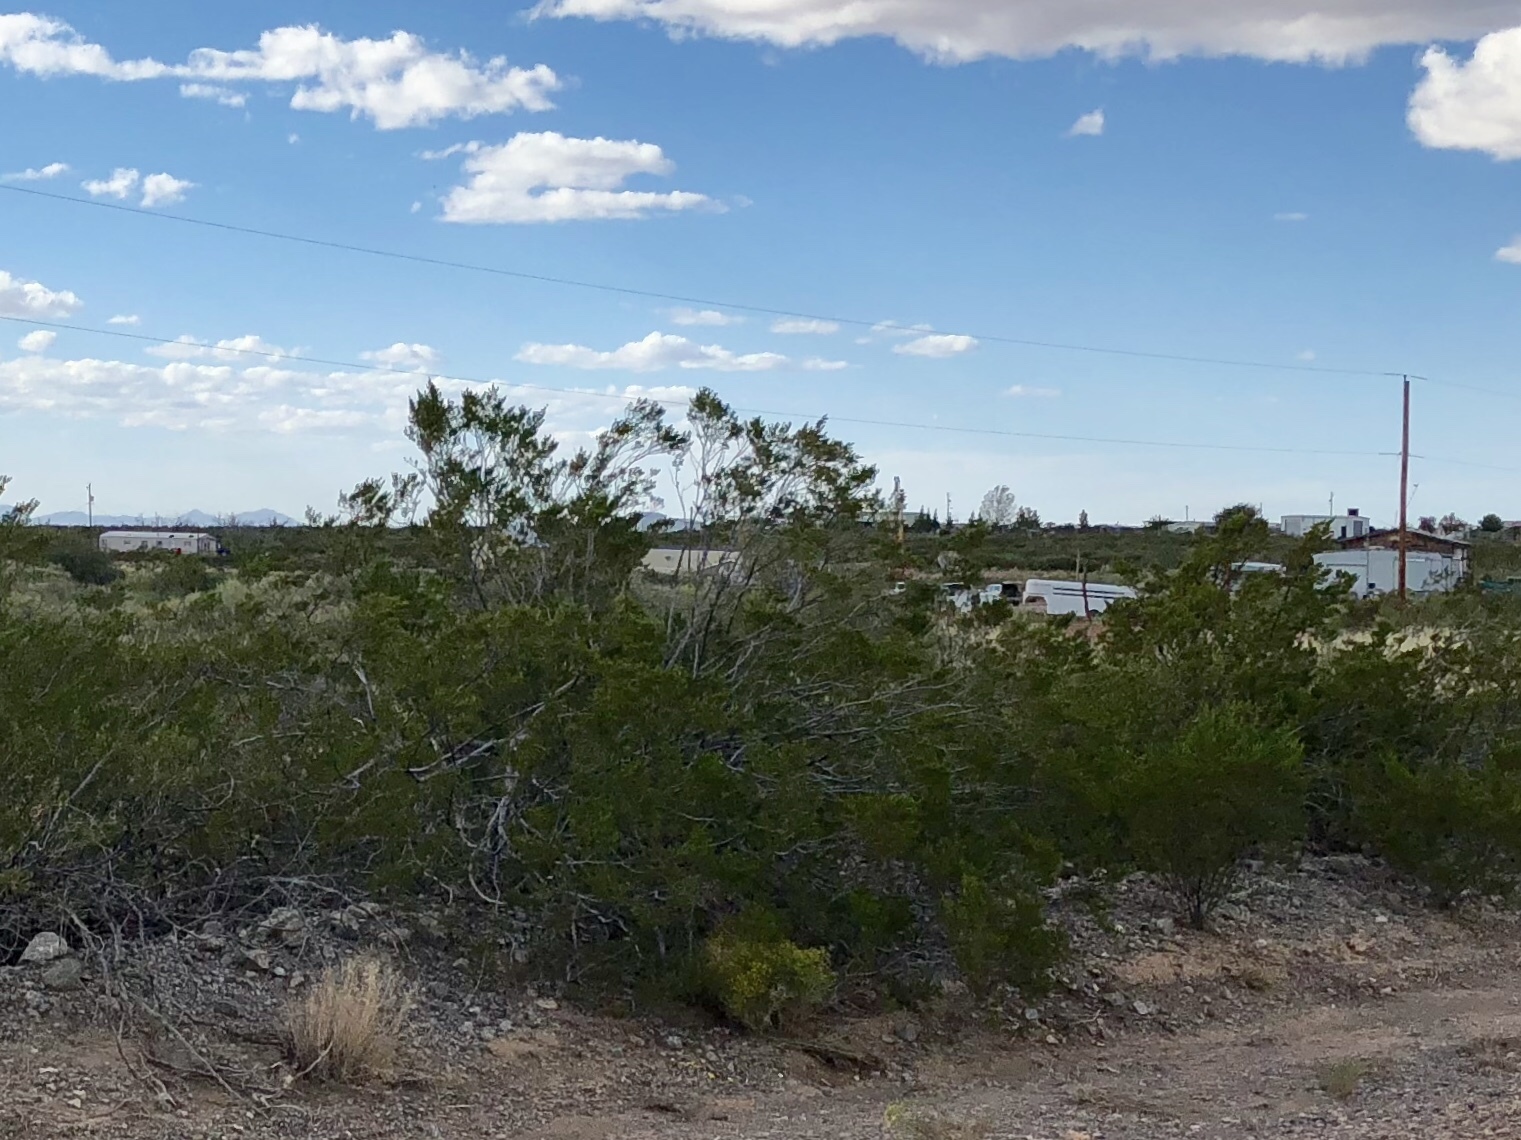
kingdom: Plantae
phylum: Tracheophyta
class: Magnoliopsida
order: Zygophyllales
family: Zygophyllaceae
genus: Larrea
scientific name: Larrea tridentata
